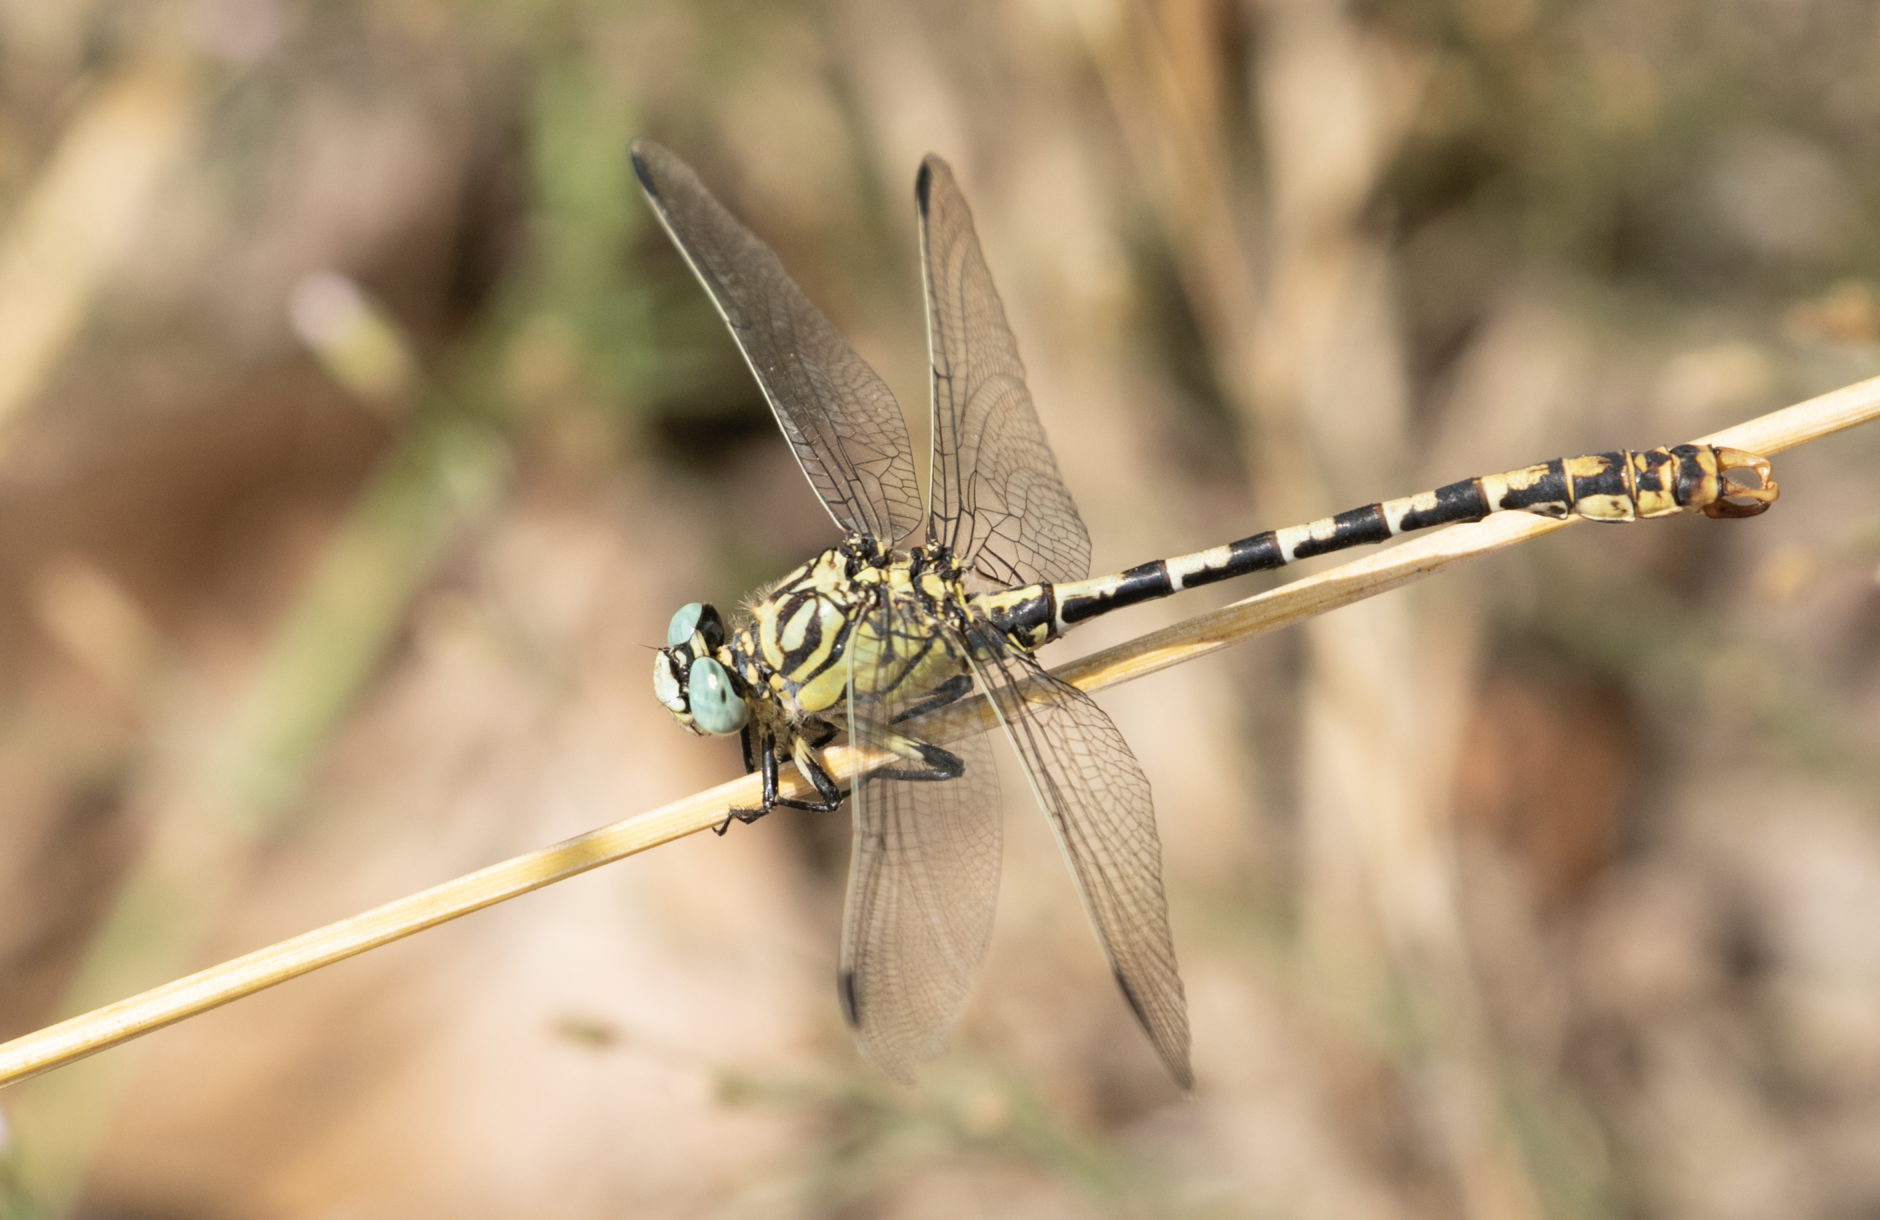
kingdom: Animalia
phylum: Arthropoda
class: Insecta
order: Odonata
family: Gomphidae
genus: Onychogomphus
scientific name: Onychogomphus forcipatus
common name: Small pincertail
